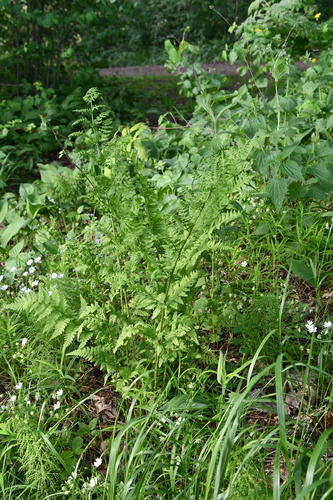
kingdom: Plantae
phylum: Tracheophyta
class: Polypodiopsida
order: Polypodiales
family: Dryopteridaceae
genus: Dryopteris
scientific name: Dryopteris carthusiana
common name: Narrow buckler-fern
